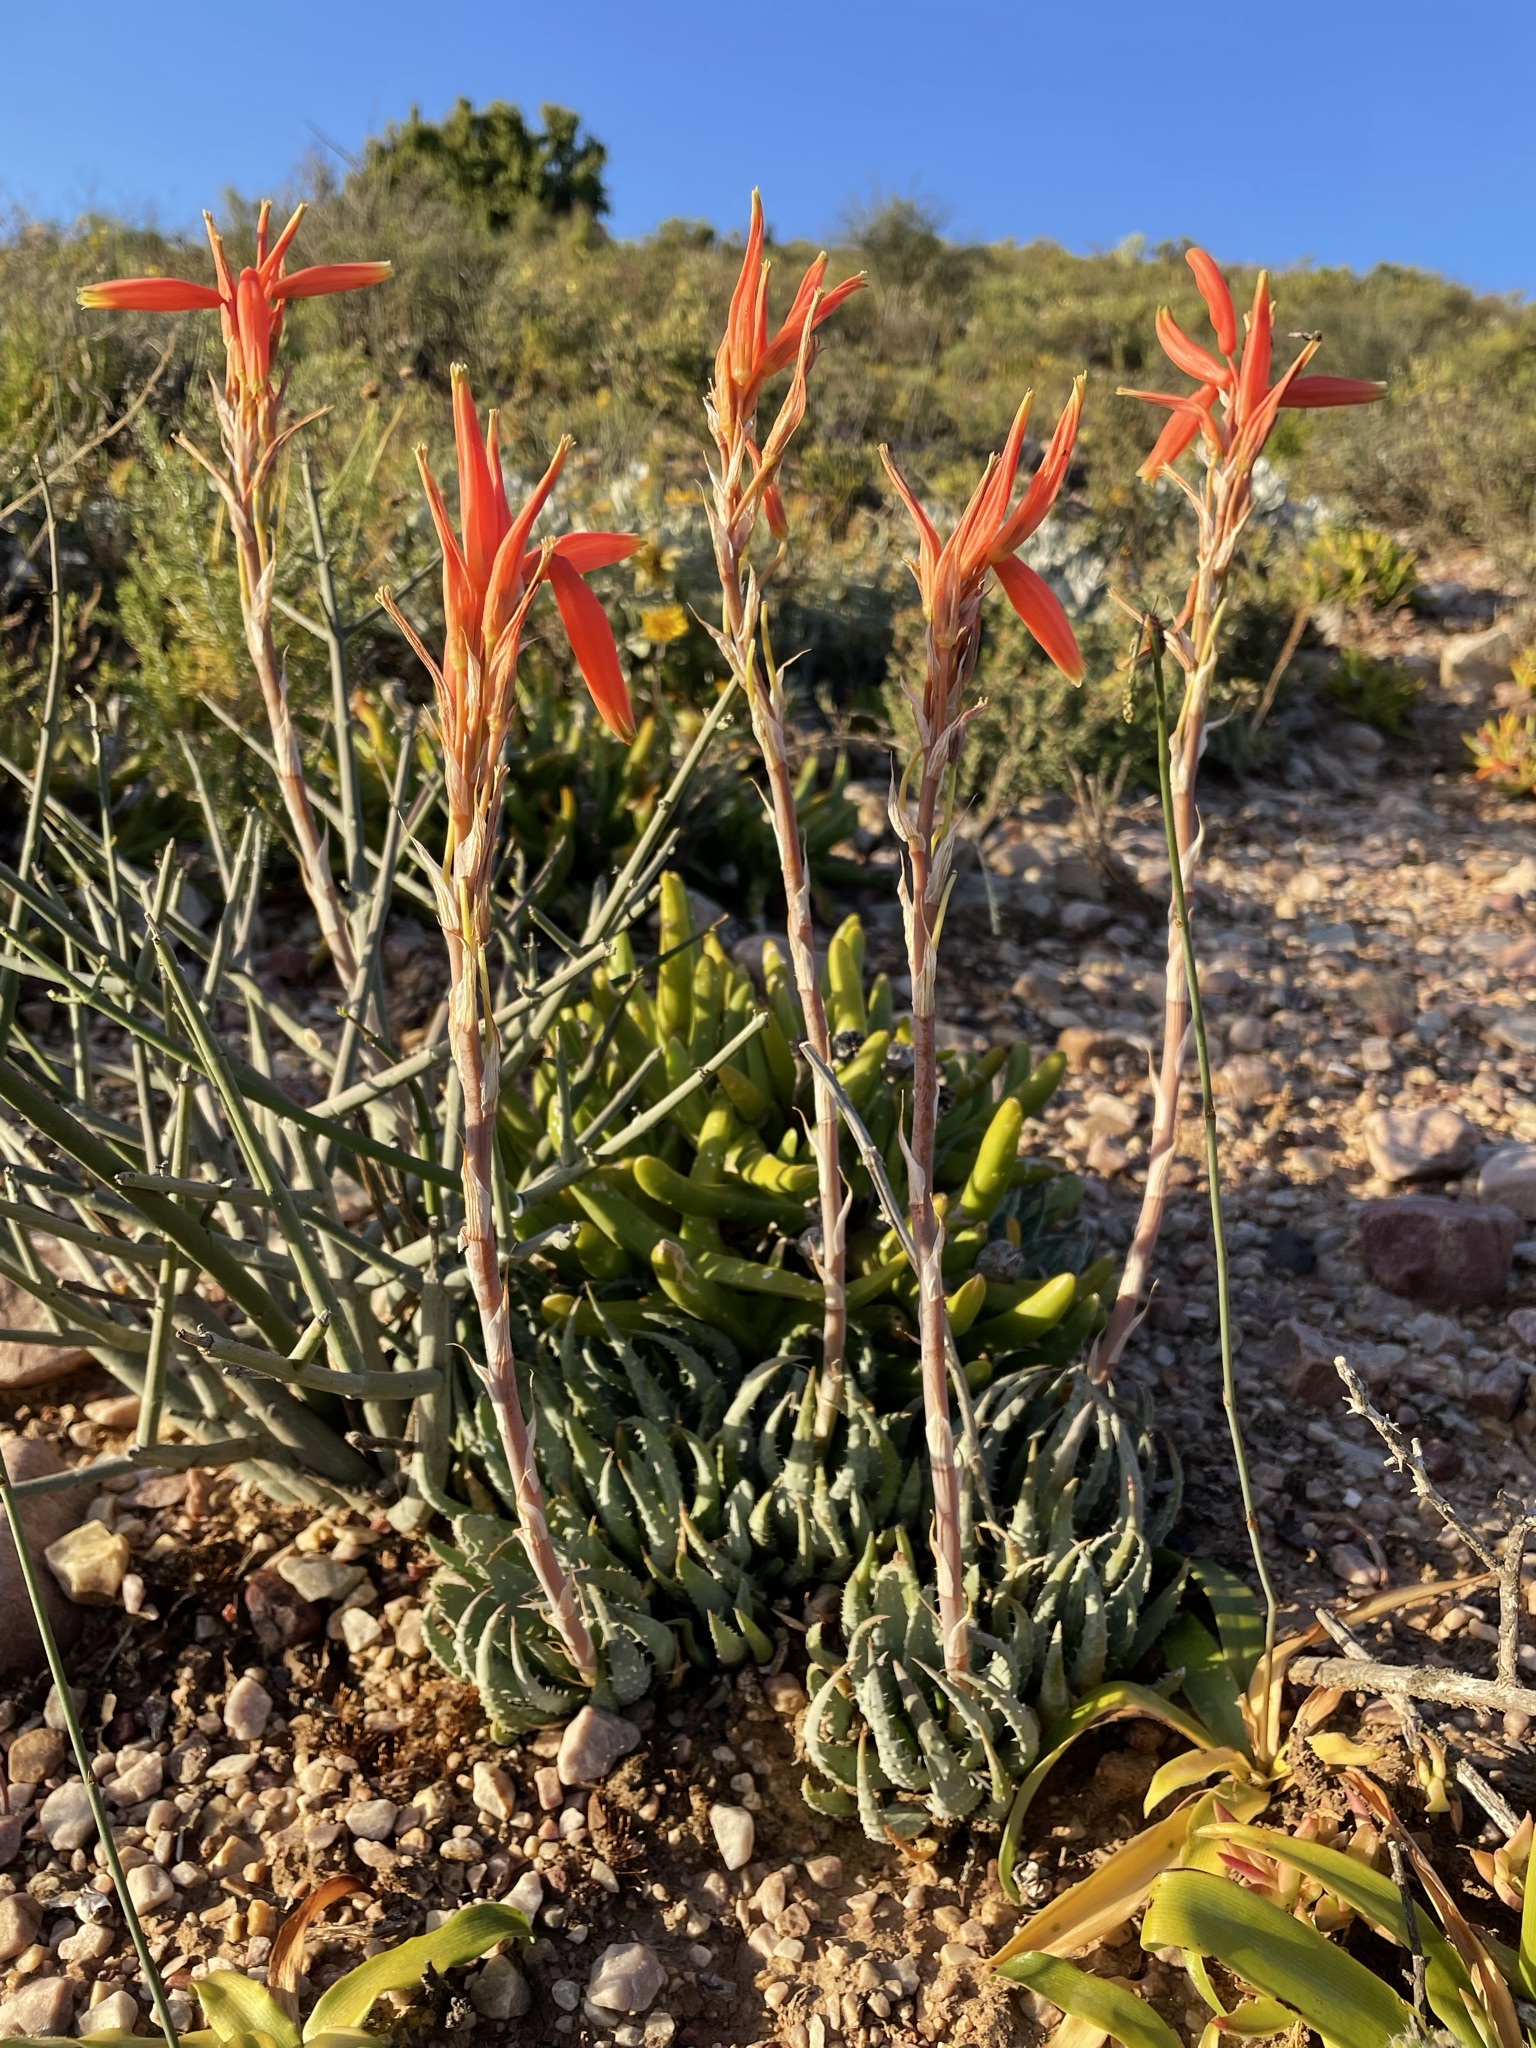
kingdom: Plantae
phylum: Tracheophyta
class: Liliopsida
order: Asparagales
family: Asphodelaceae
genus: Aloe
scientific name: Aloe humilis
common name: Dwarf hedgehog aloe
